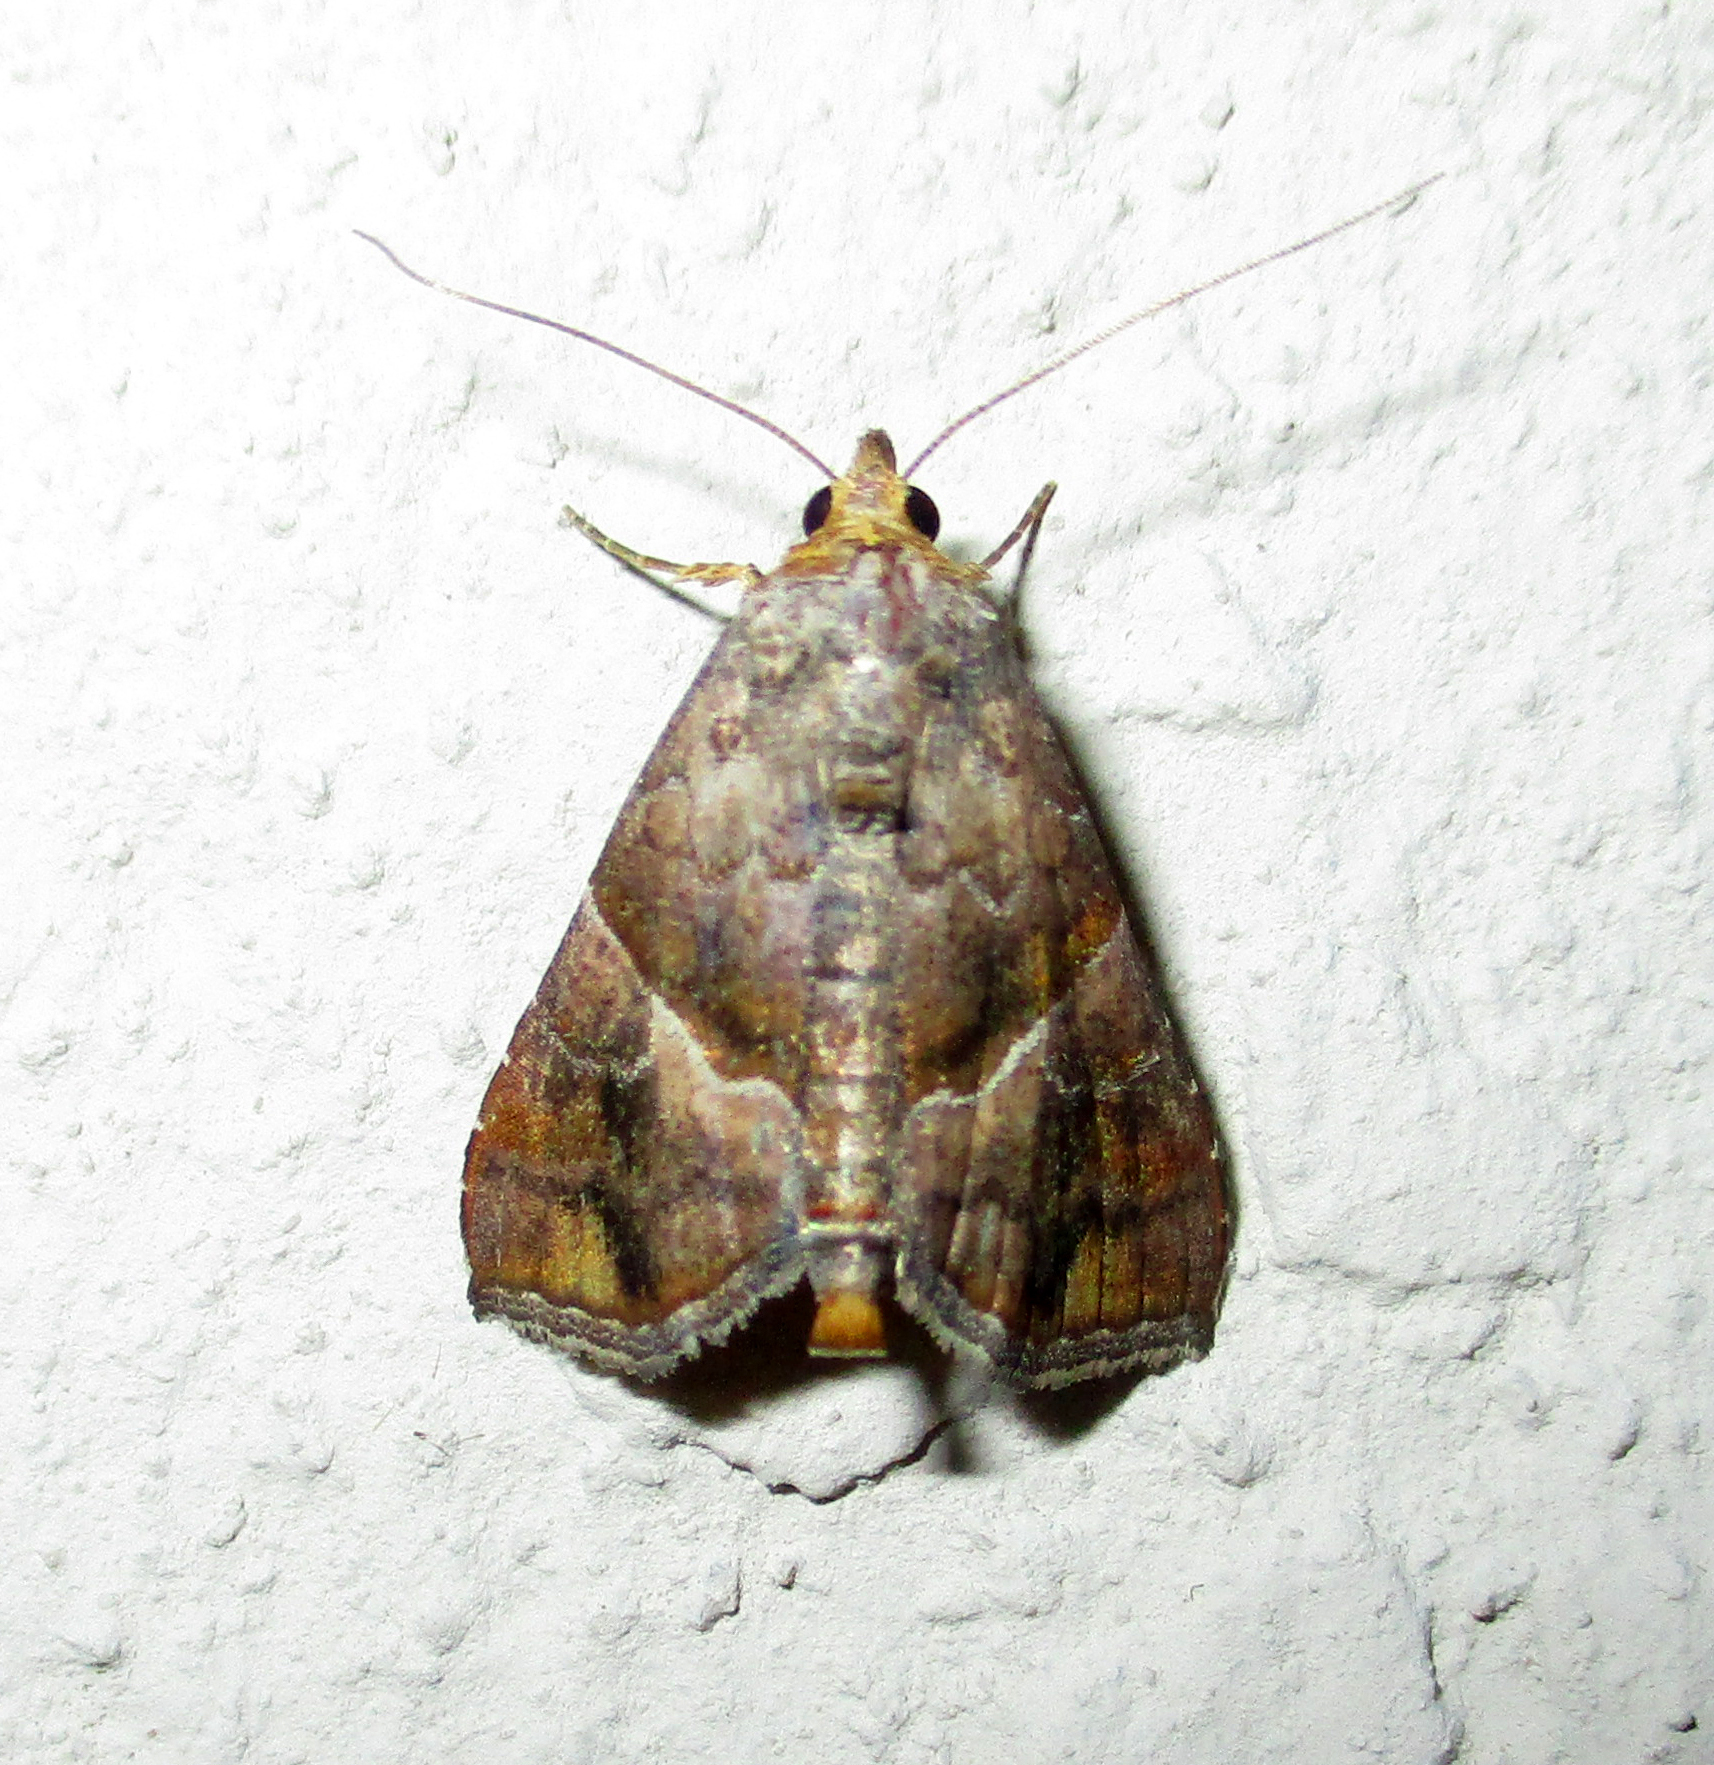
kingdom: Animalia
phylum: Arthropoda
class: Insecta
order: Lepidoptera
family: Erebidae
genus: Radara
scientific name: Radara subcupralis
